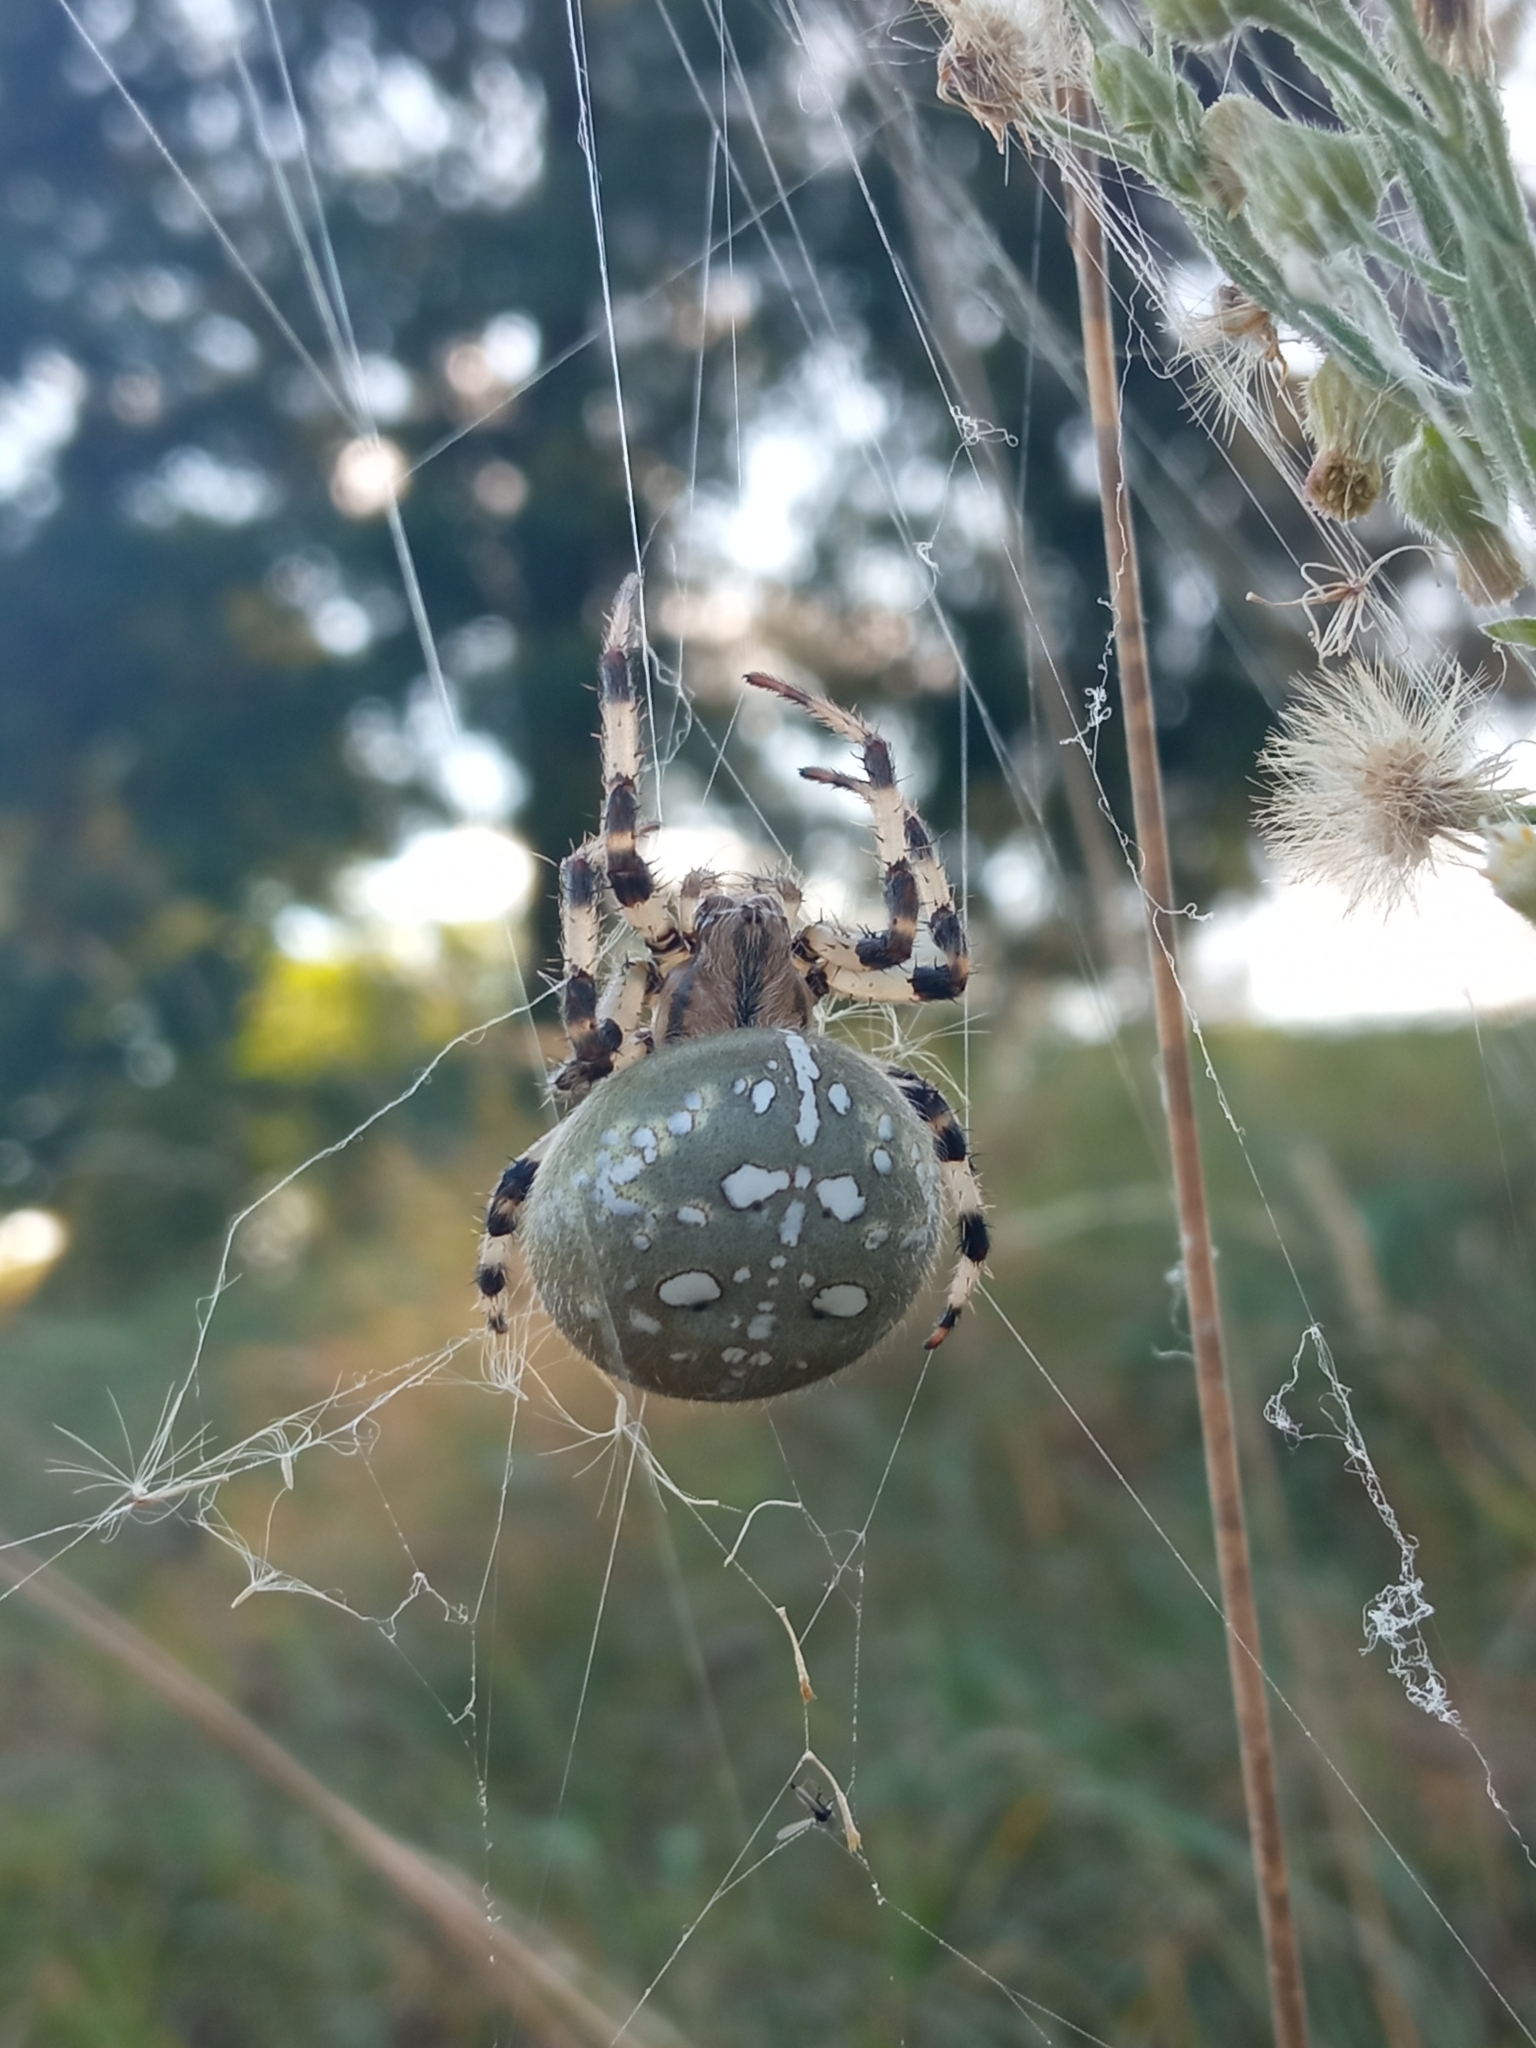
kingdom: Animalia
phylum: Arthropoda
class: Arachnida
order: Araneae
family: Araneidae
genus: Araneus
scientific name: Araneus quadratus
